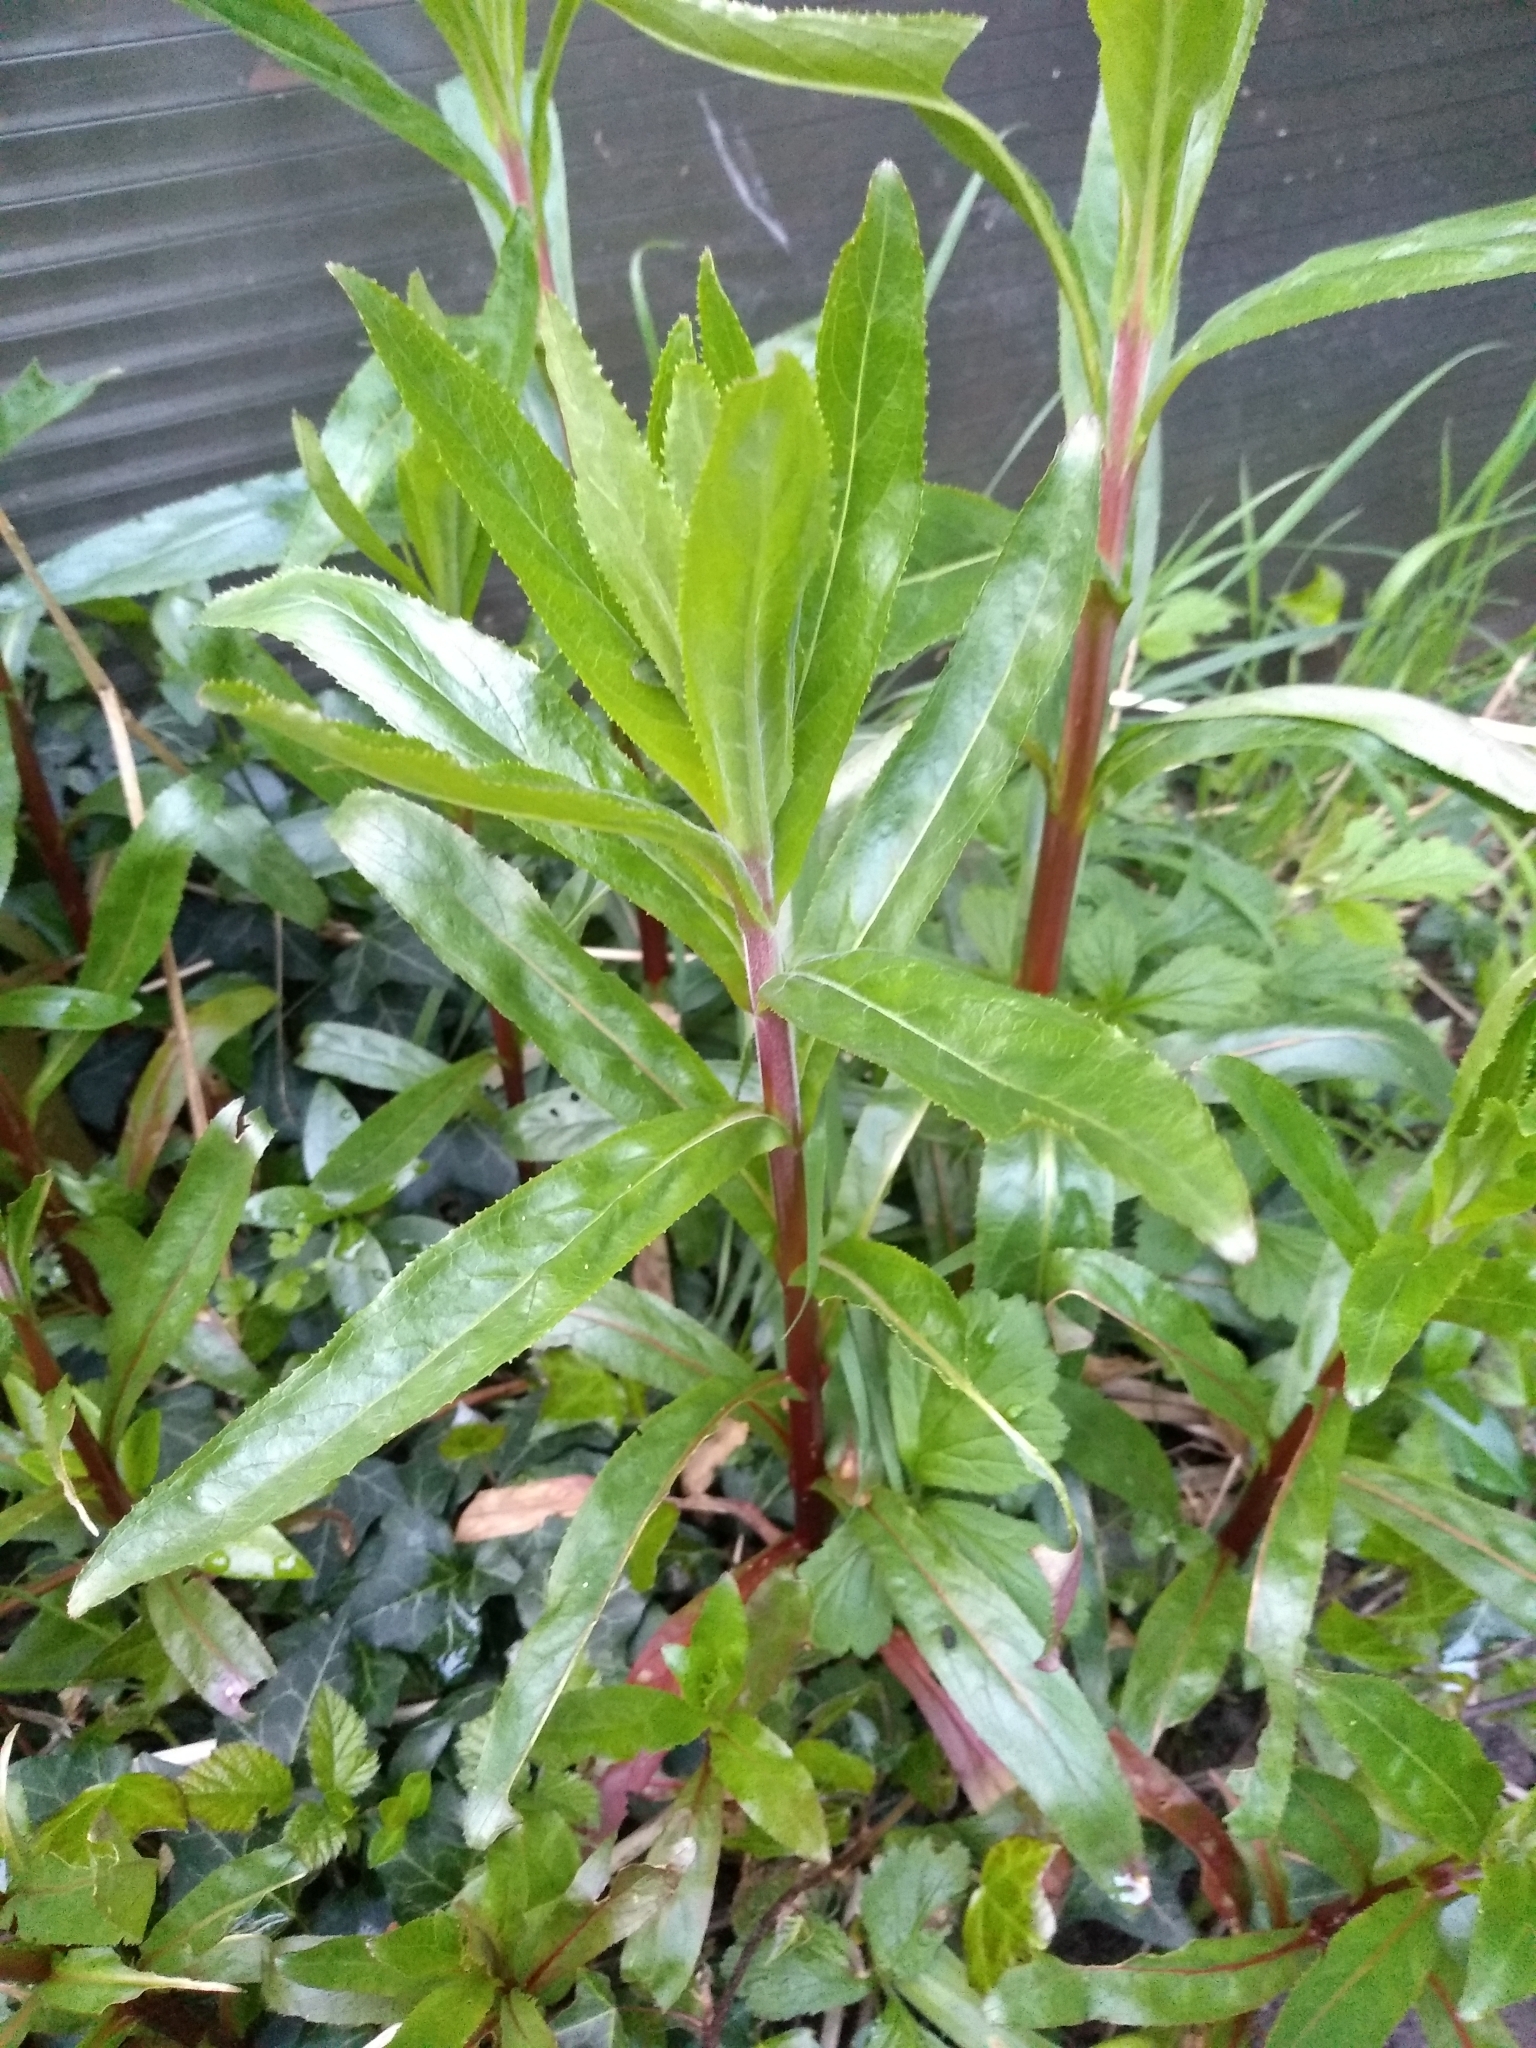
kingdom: Plantae
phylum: Tracheophyta
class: Magnoliopsida
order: Myrtales
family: Onagraceae
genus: Epilobium
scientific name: Epilobium hirsutum
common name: Great willowherb
